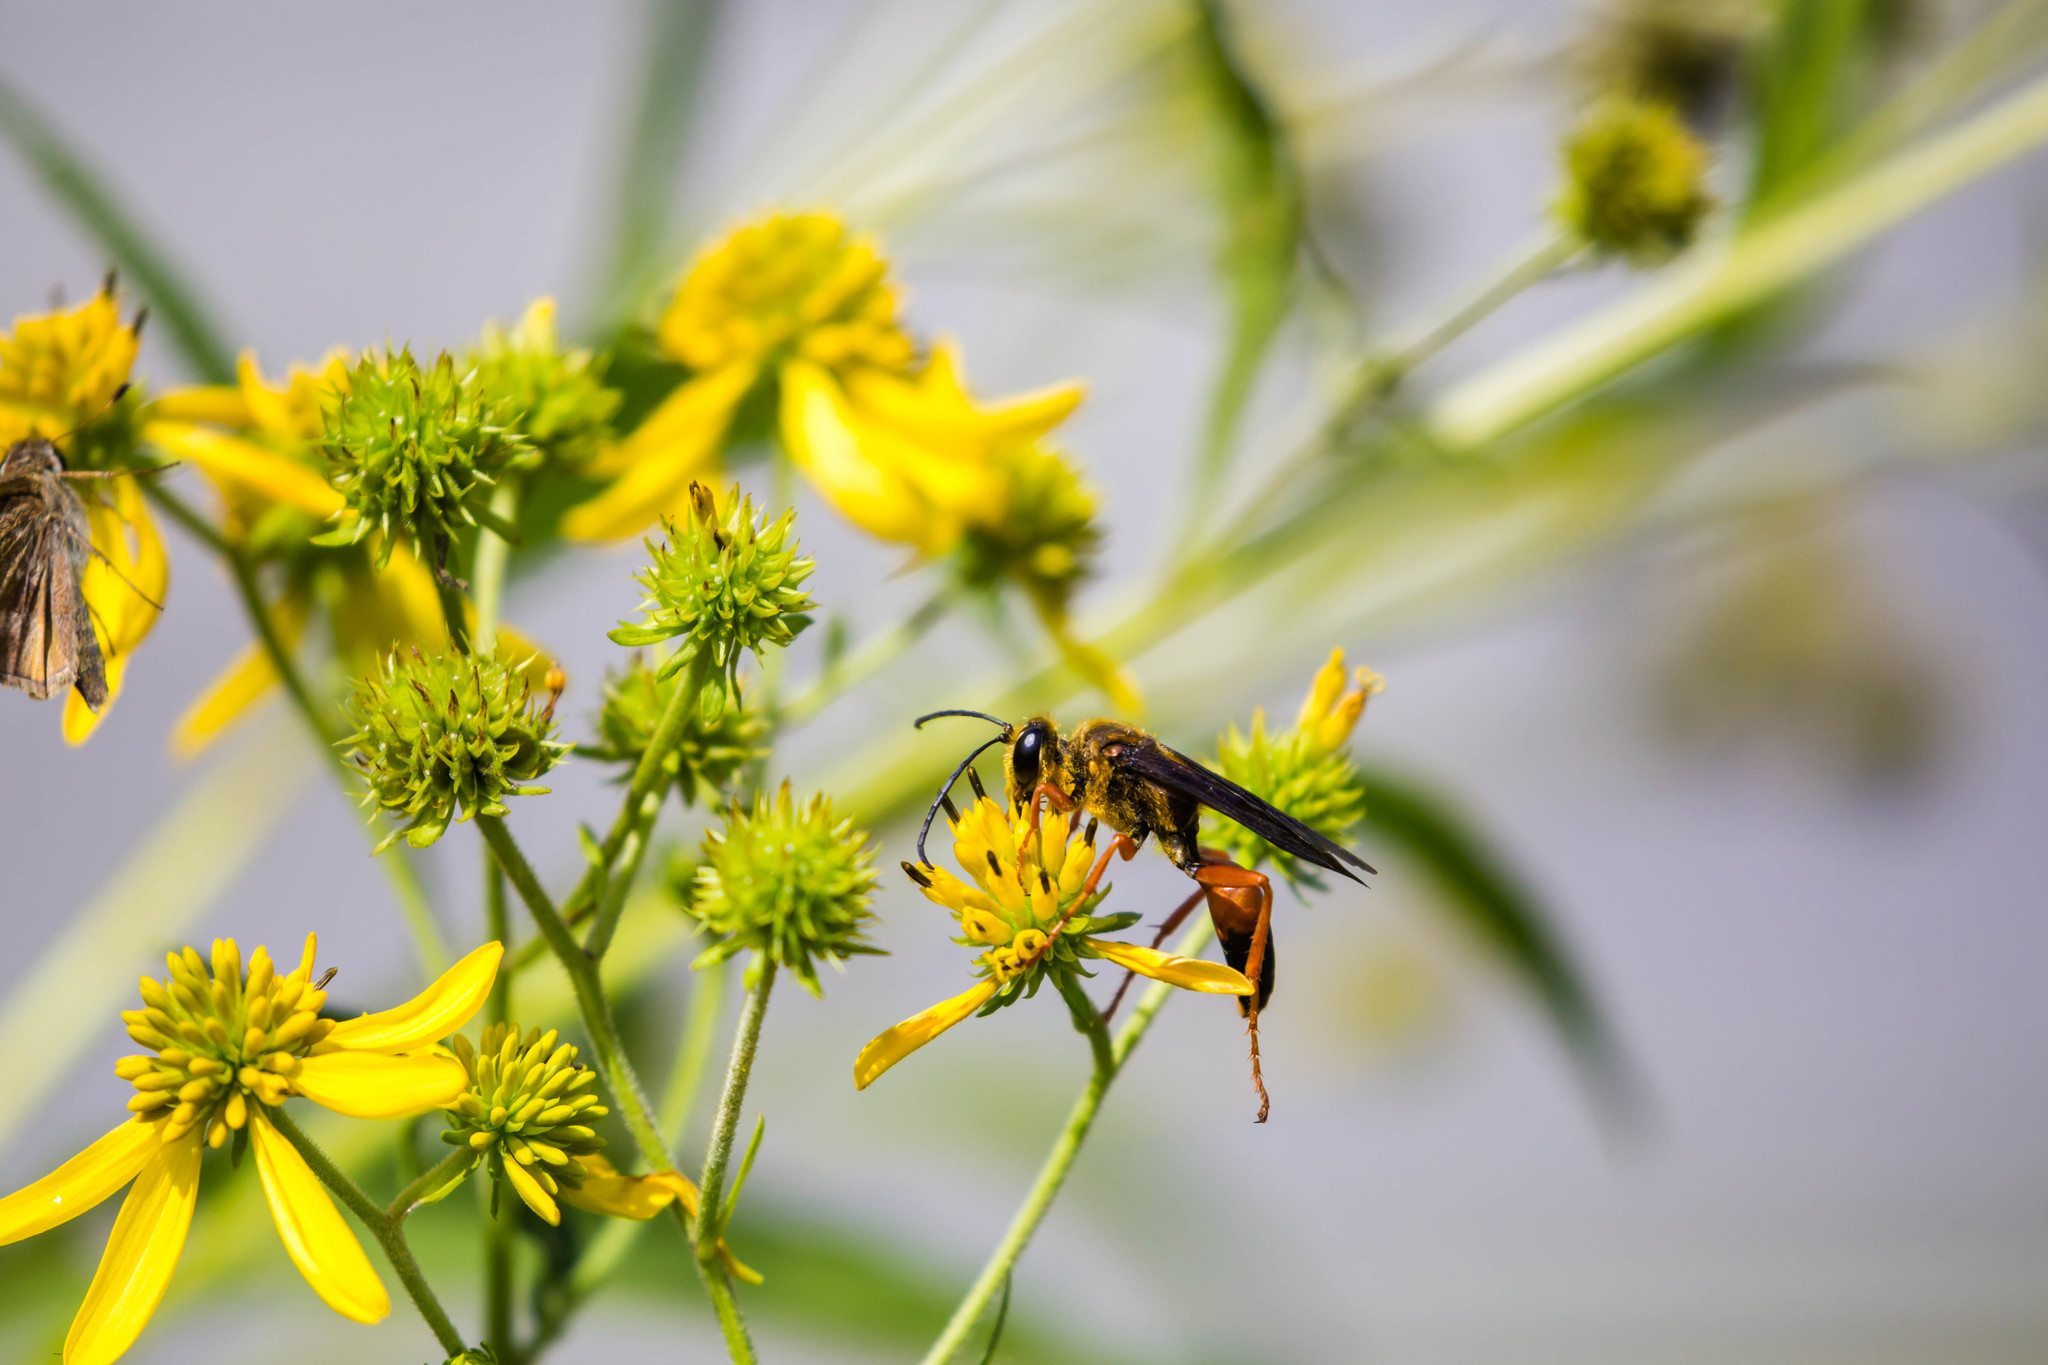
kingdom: Animalia
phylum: Arthropoda
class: Insecta
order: Hymenoptera
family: Sphecidae
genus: Sphex
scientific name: Sphex ichneumoneus
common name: Great golden digger wasp
